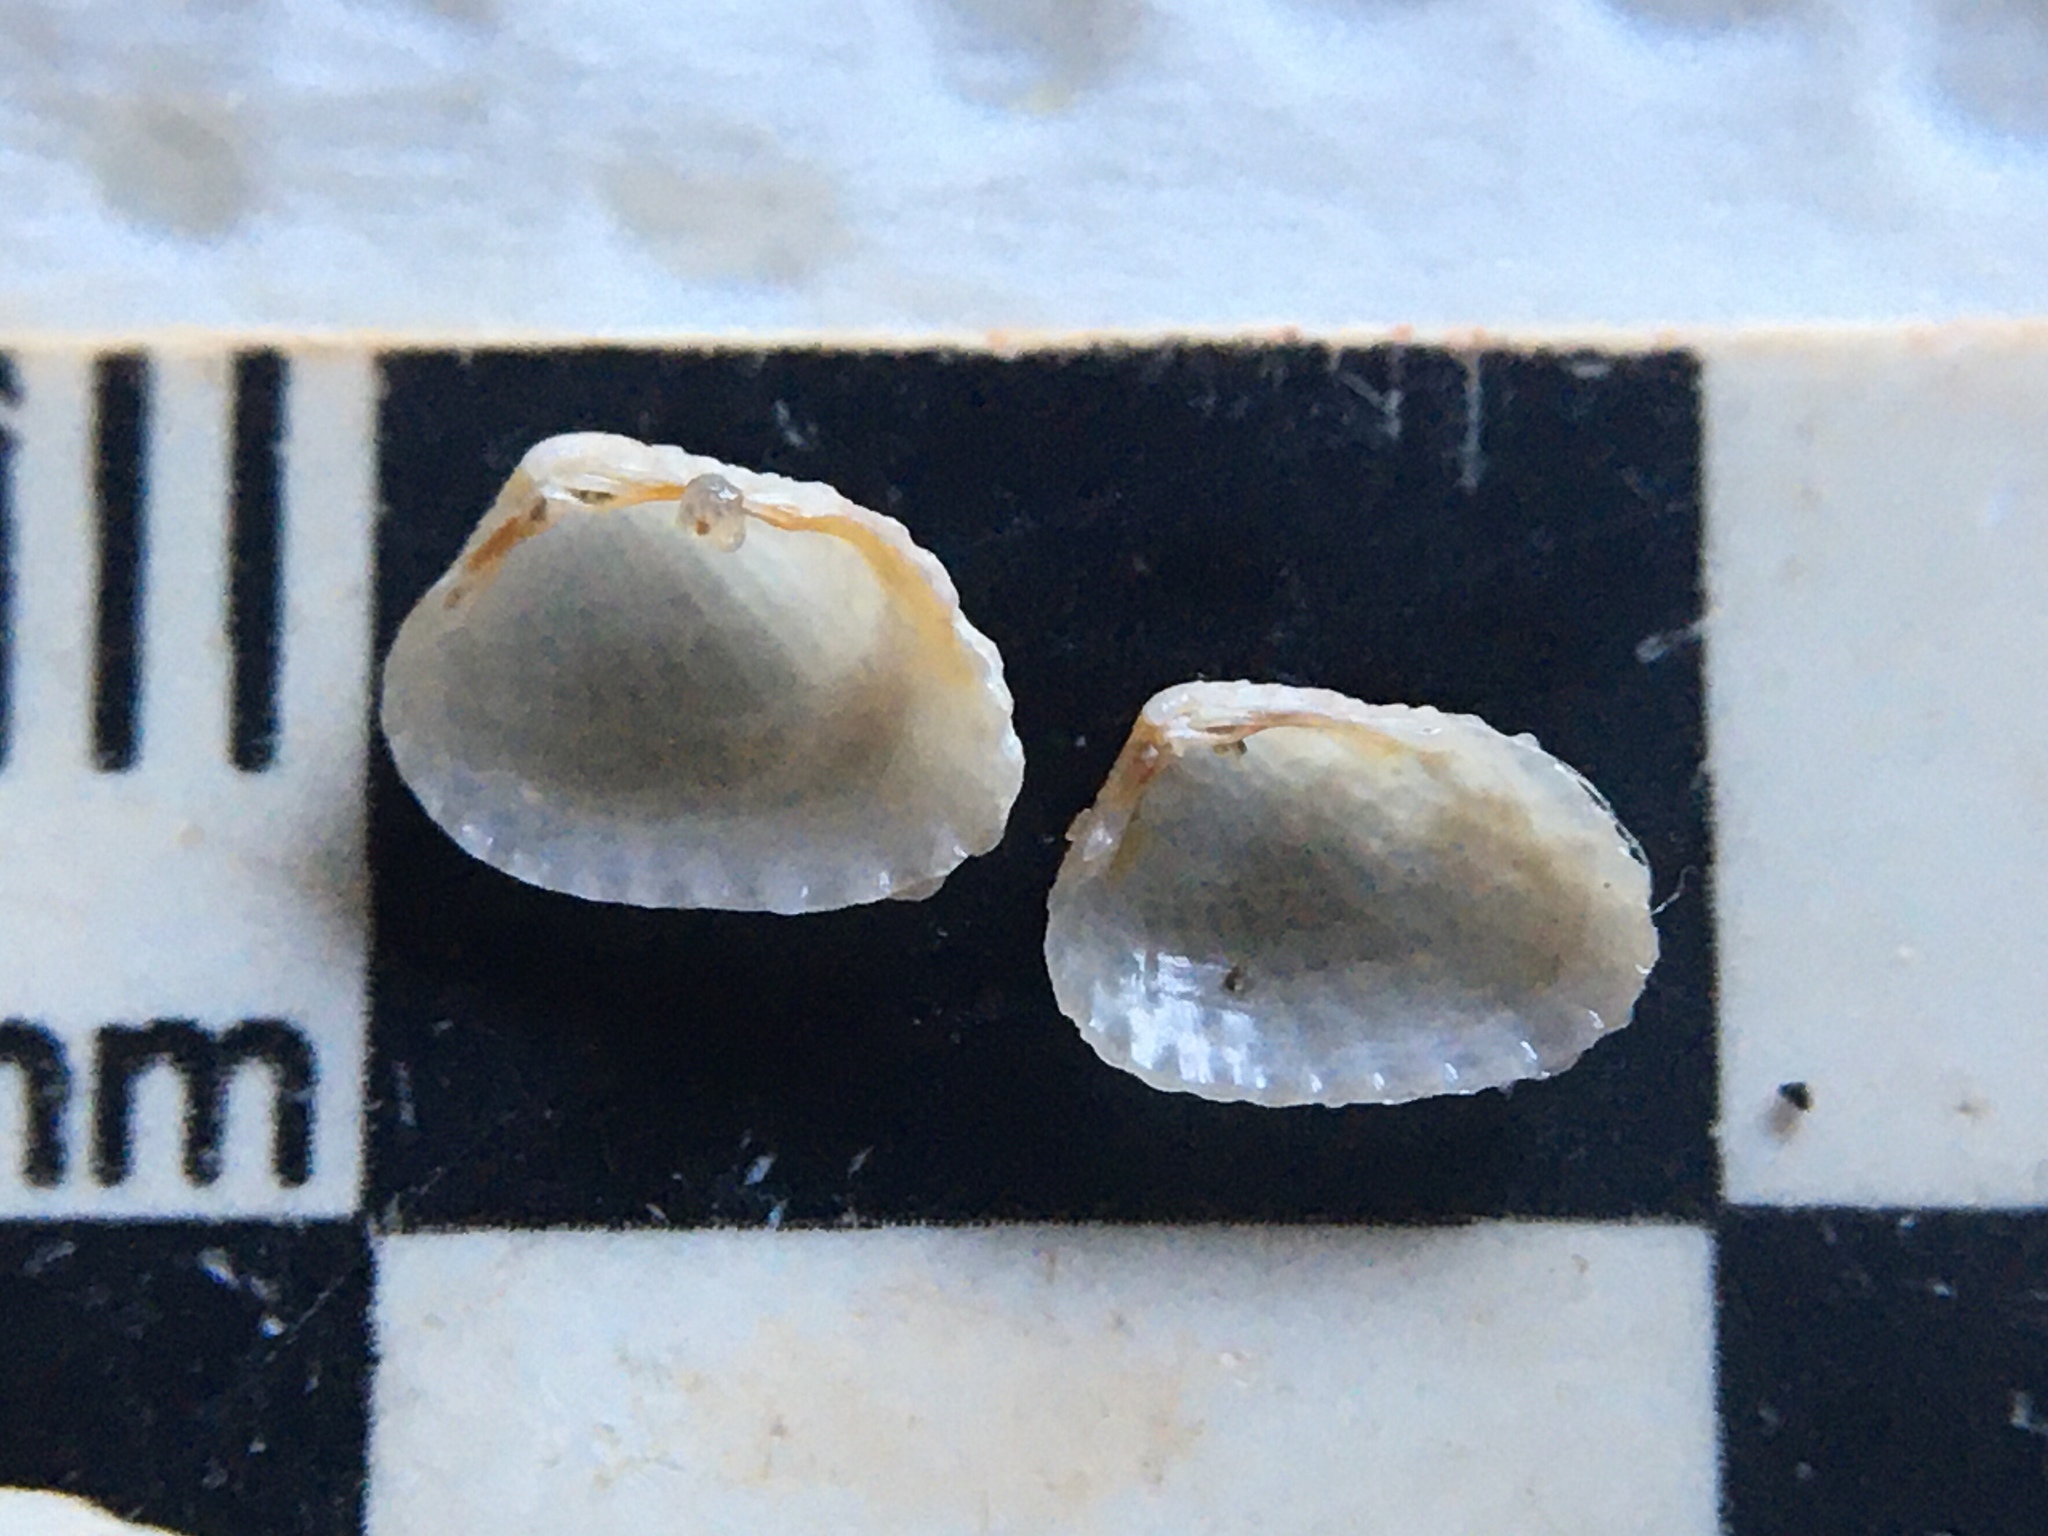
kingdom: Animalia
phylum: Mollusca
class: Bivalvia
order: Carditida
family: Carditidae
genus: Carditamera
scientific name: Carditamera plata
